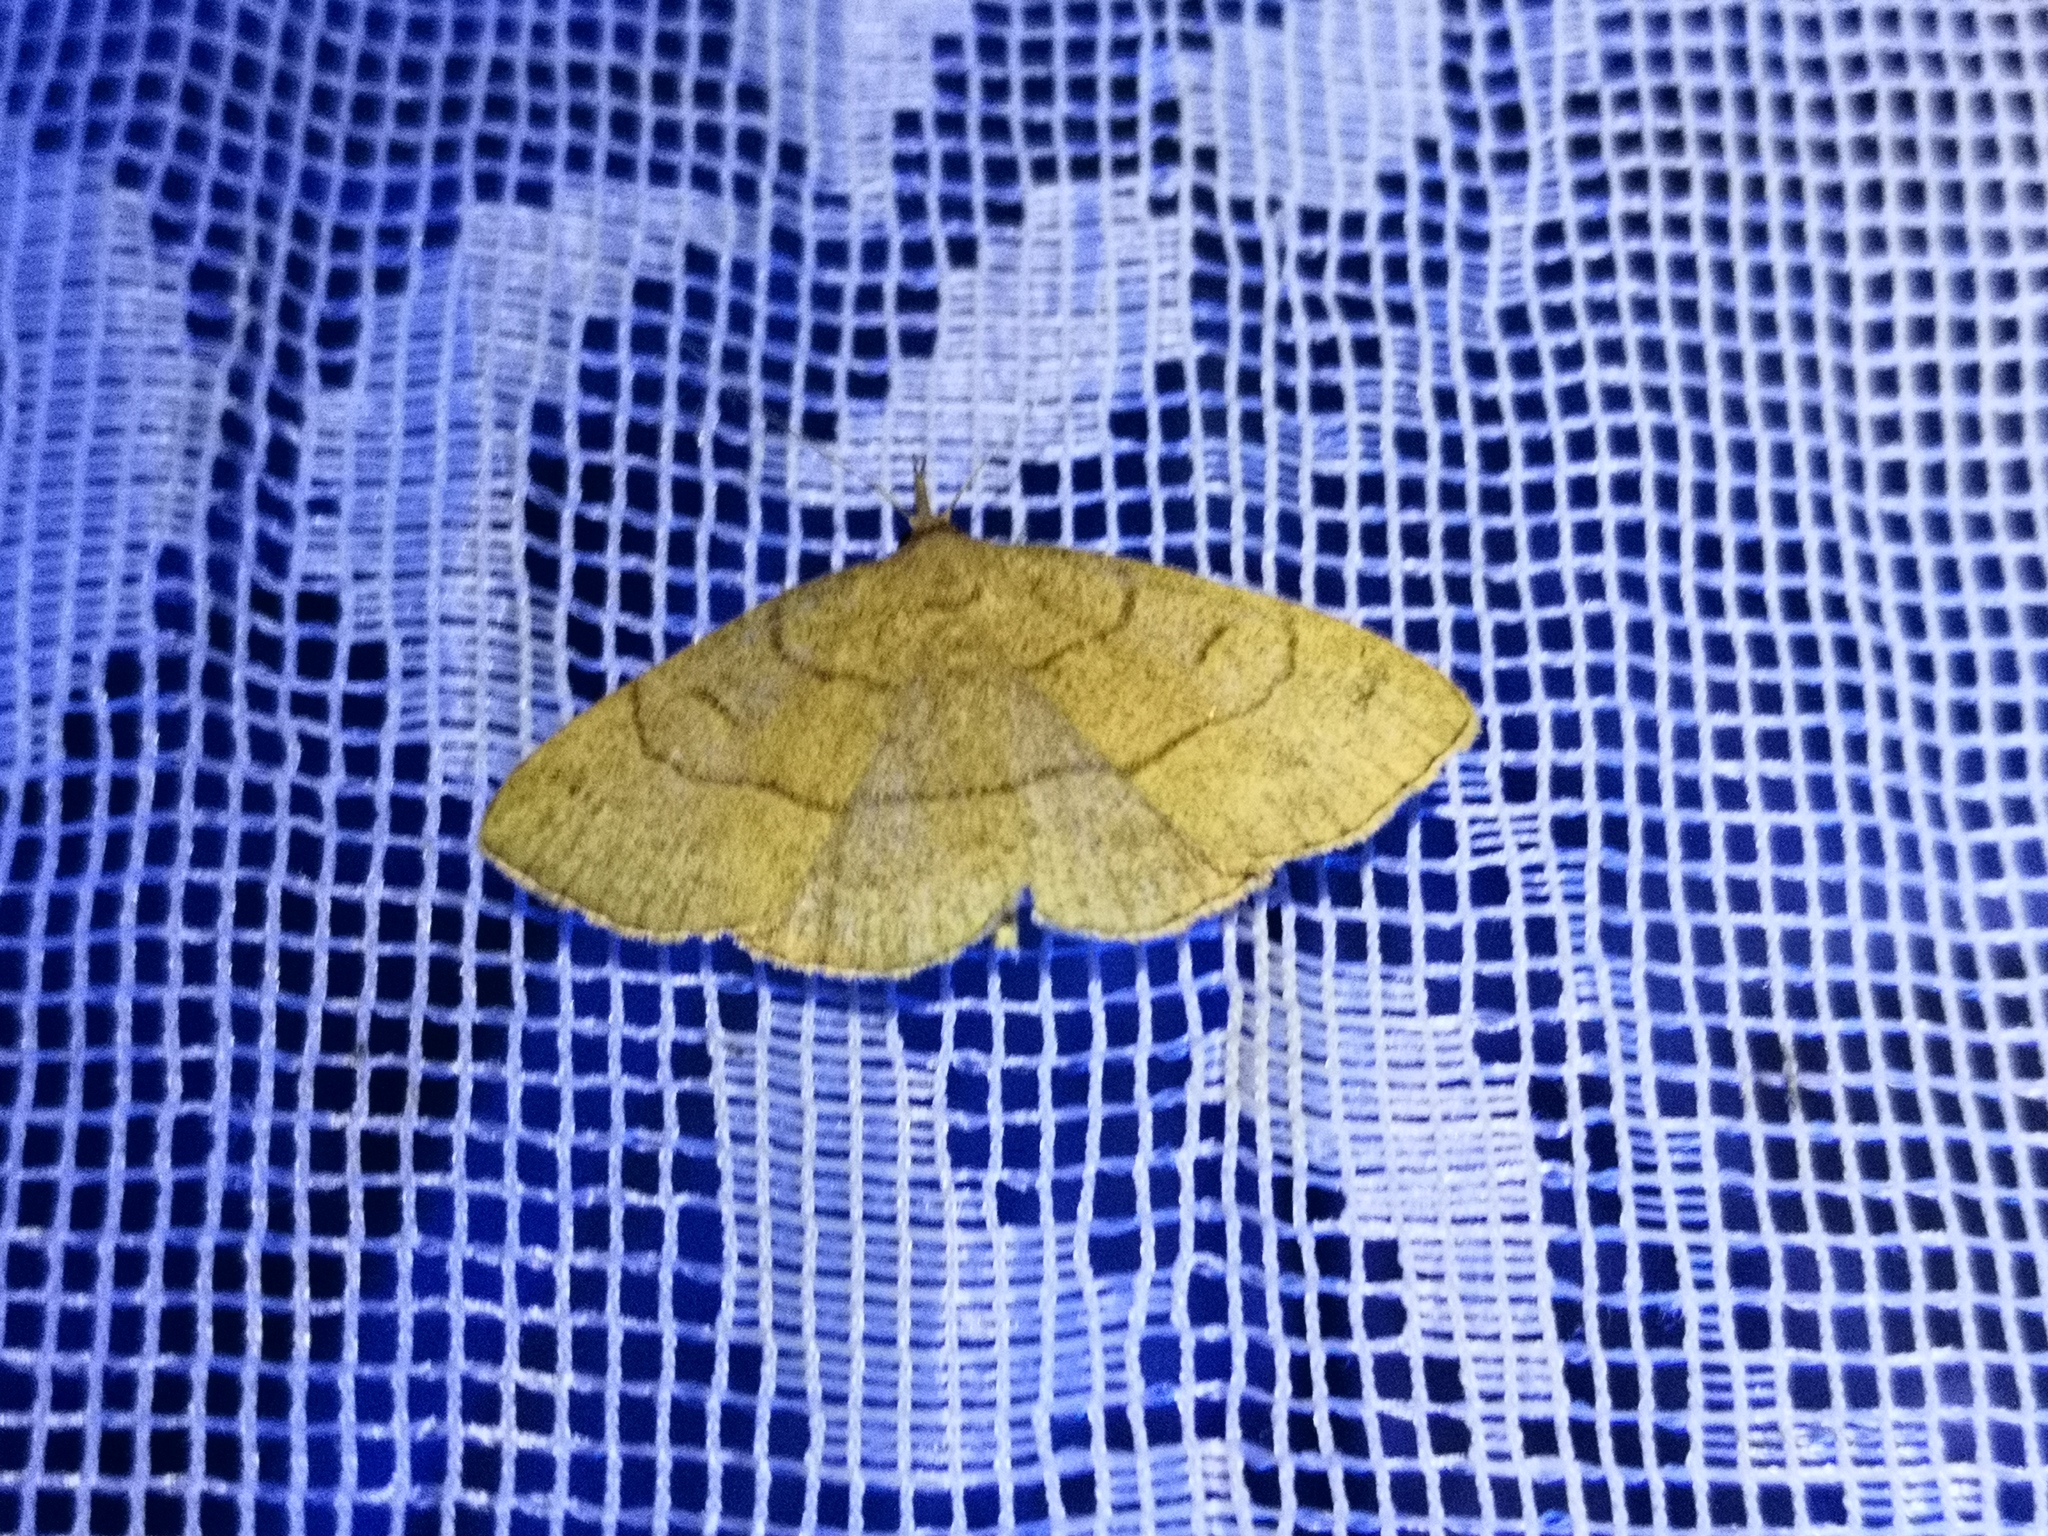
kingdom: Animalia
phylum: Arthropoda
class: Insecta
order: Lepidoptera
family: Erebidae
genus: Paracolax
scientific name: Paracolax tristalis
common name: Clay fan-foot
